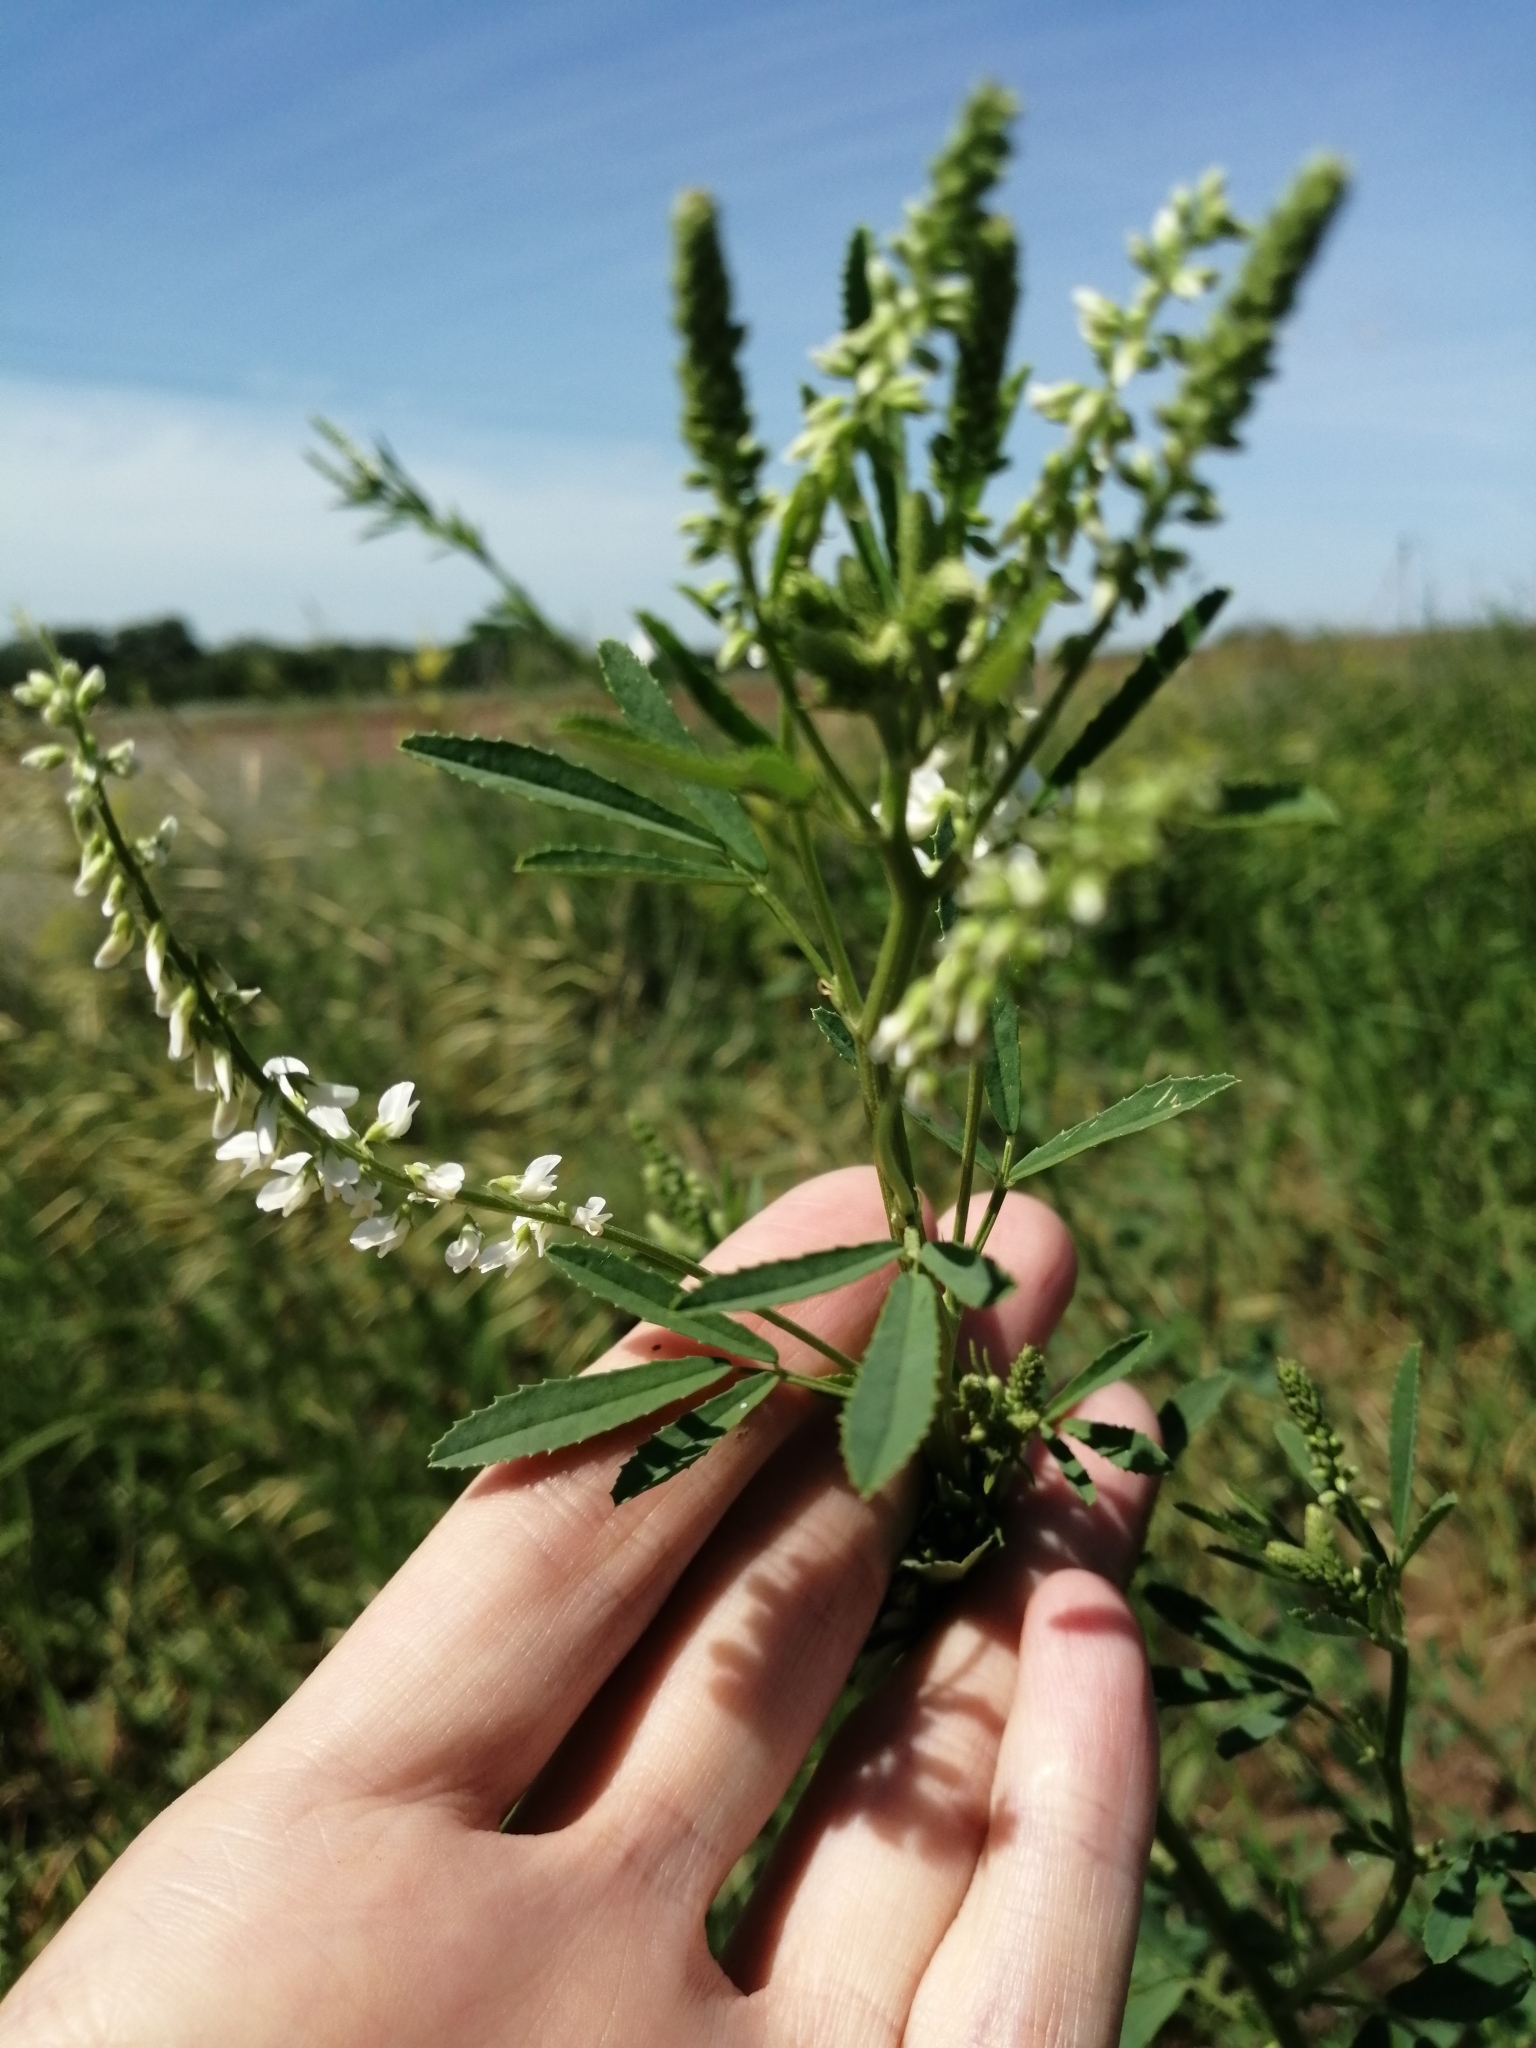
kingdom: Plantae
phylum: Tracheophyta
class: Magnoliopsida
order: Fabales
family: Fabaceae
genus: Melilotus
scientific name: Melilotus albus
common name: White melilot
